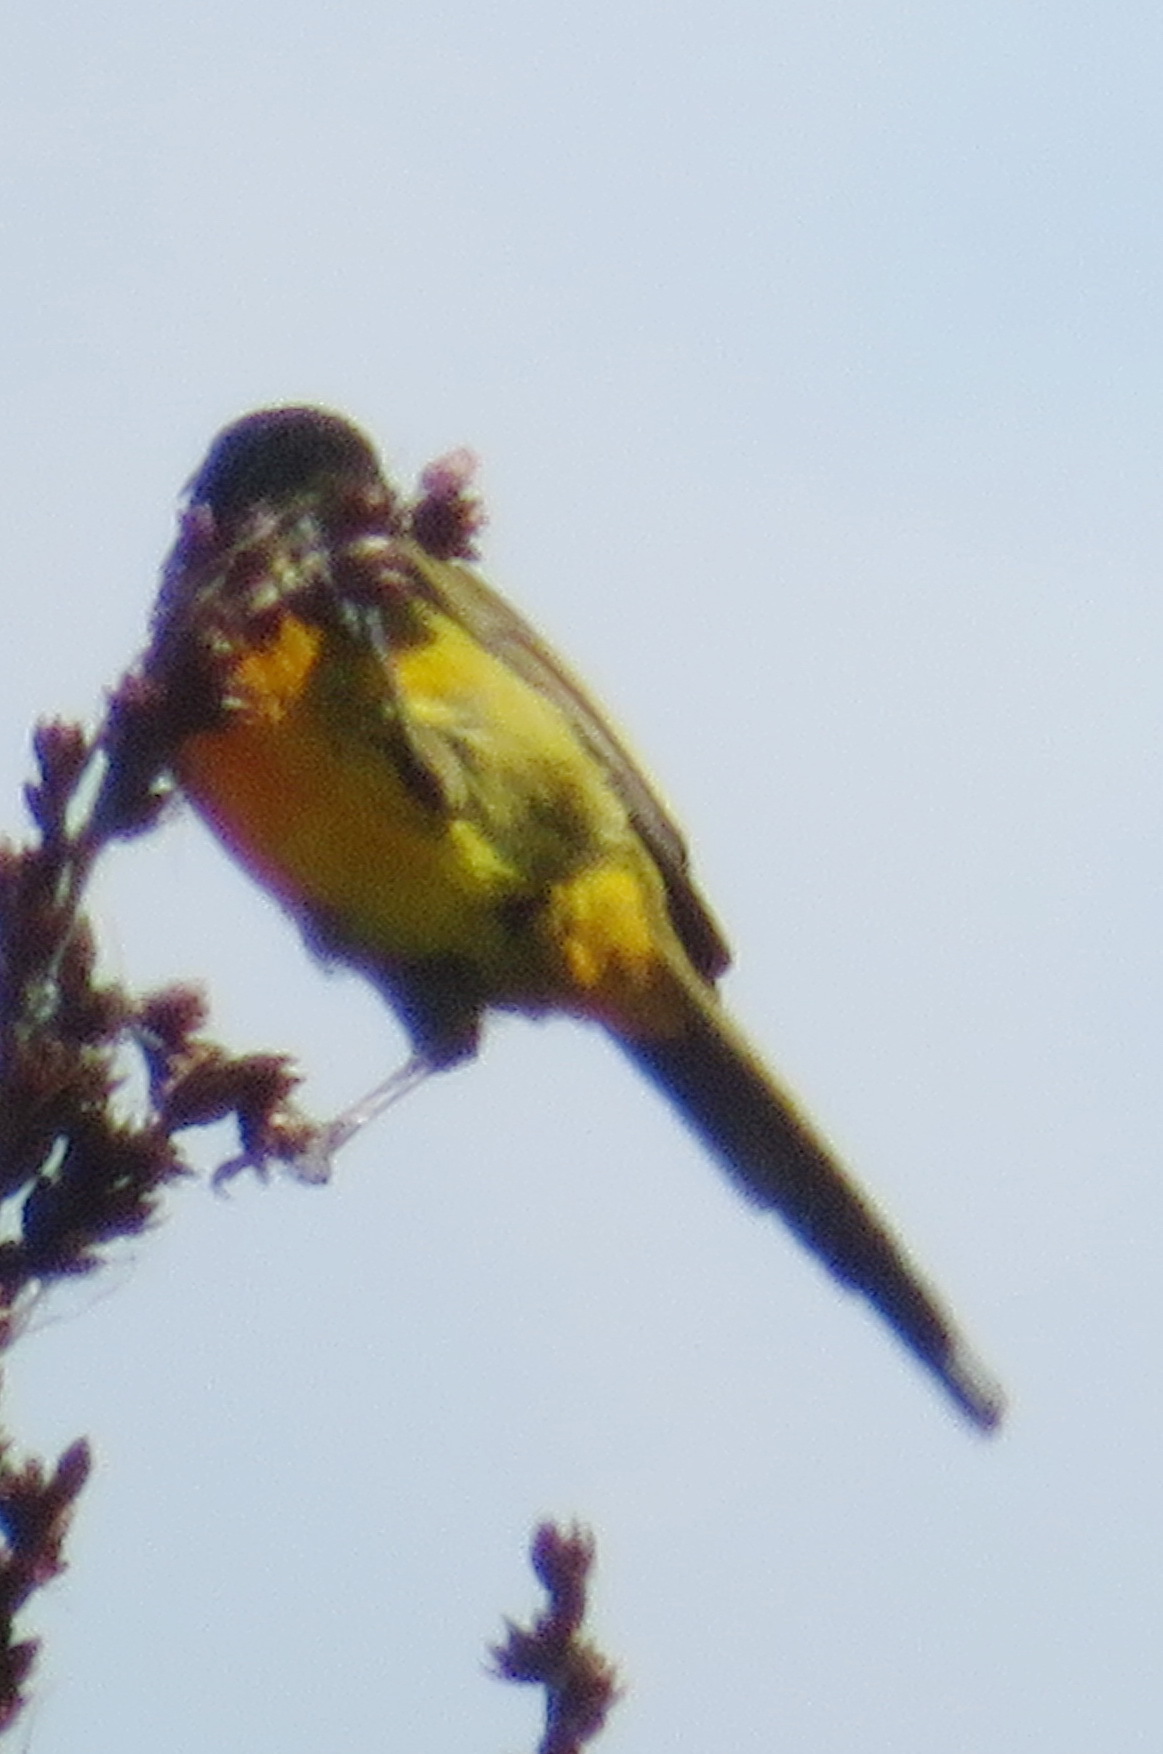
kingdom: Animalia
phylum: Chordata
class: Aves
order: Passeriformes
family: Nectariniidae
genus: Anthobaphes
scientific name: Anthobaphes violacea
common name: Orange-breasted sunbird
